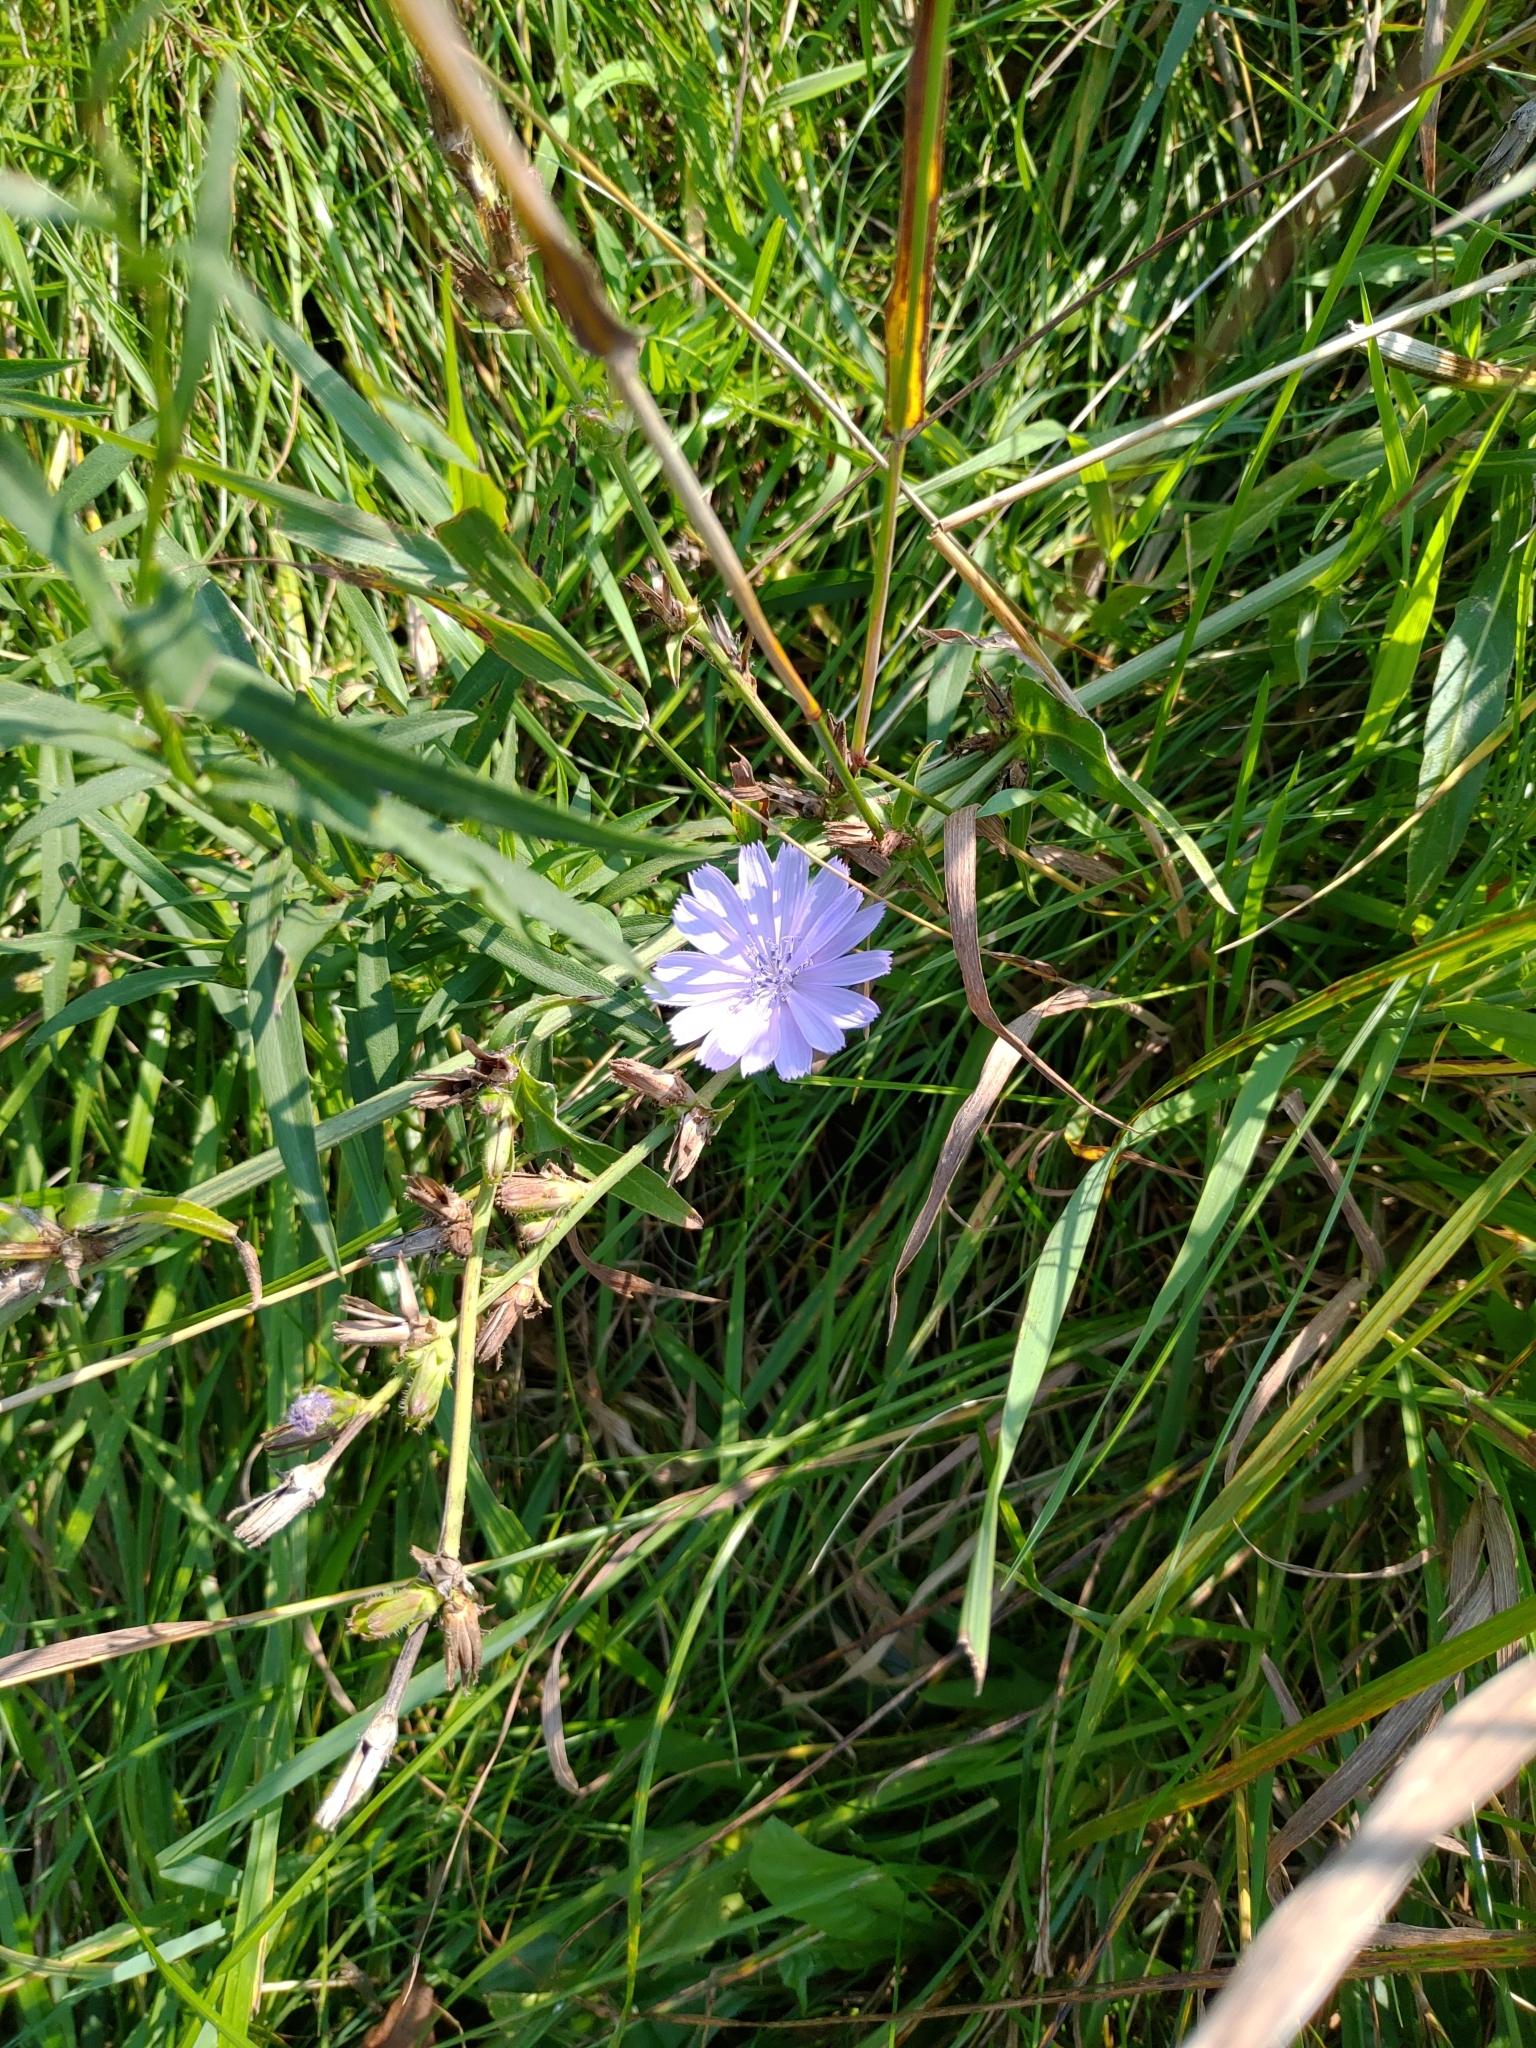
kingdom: Plantae
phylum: Tracheophyta
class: Magnoliopsida
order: Asterales
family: Asteraceae
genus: Cichorium
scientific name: Cichorium intybus
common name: Chicory
